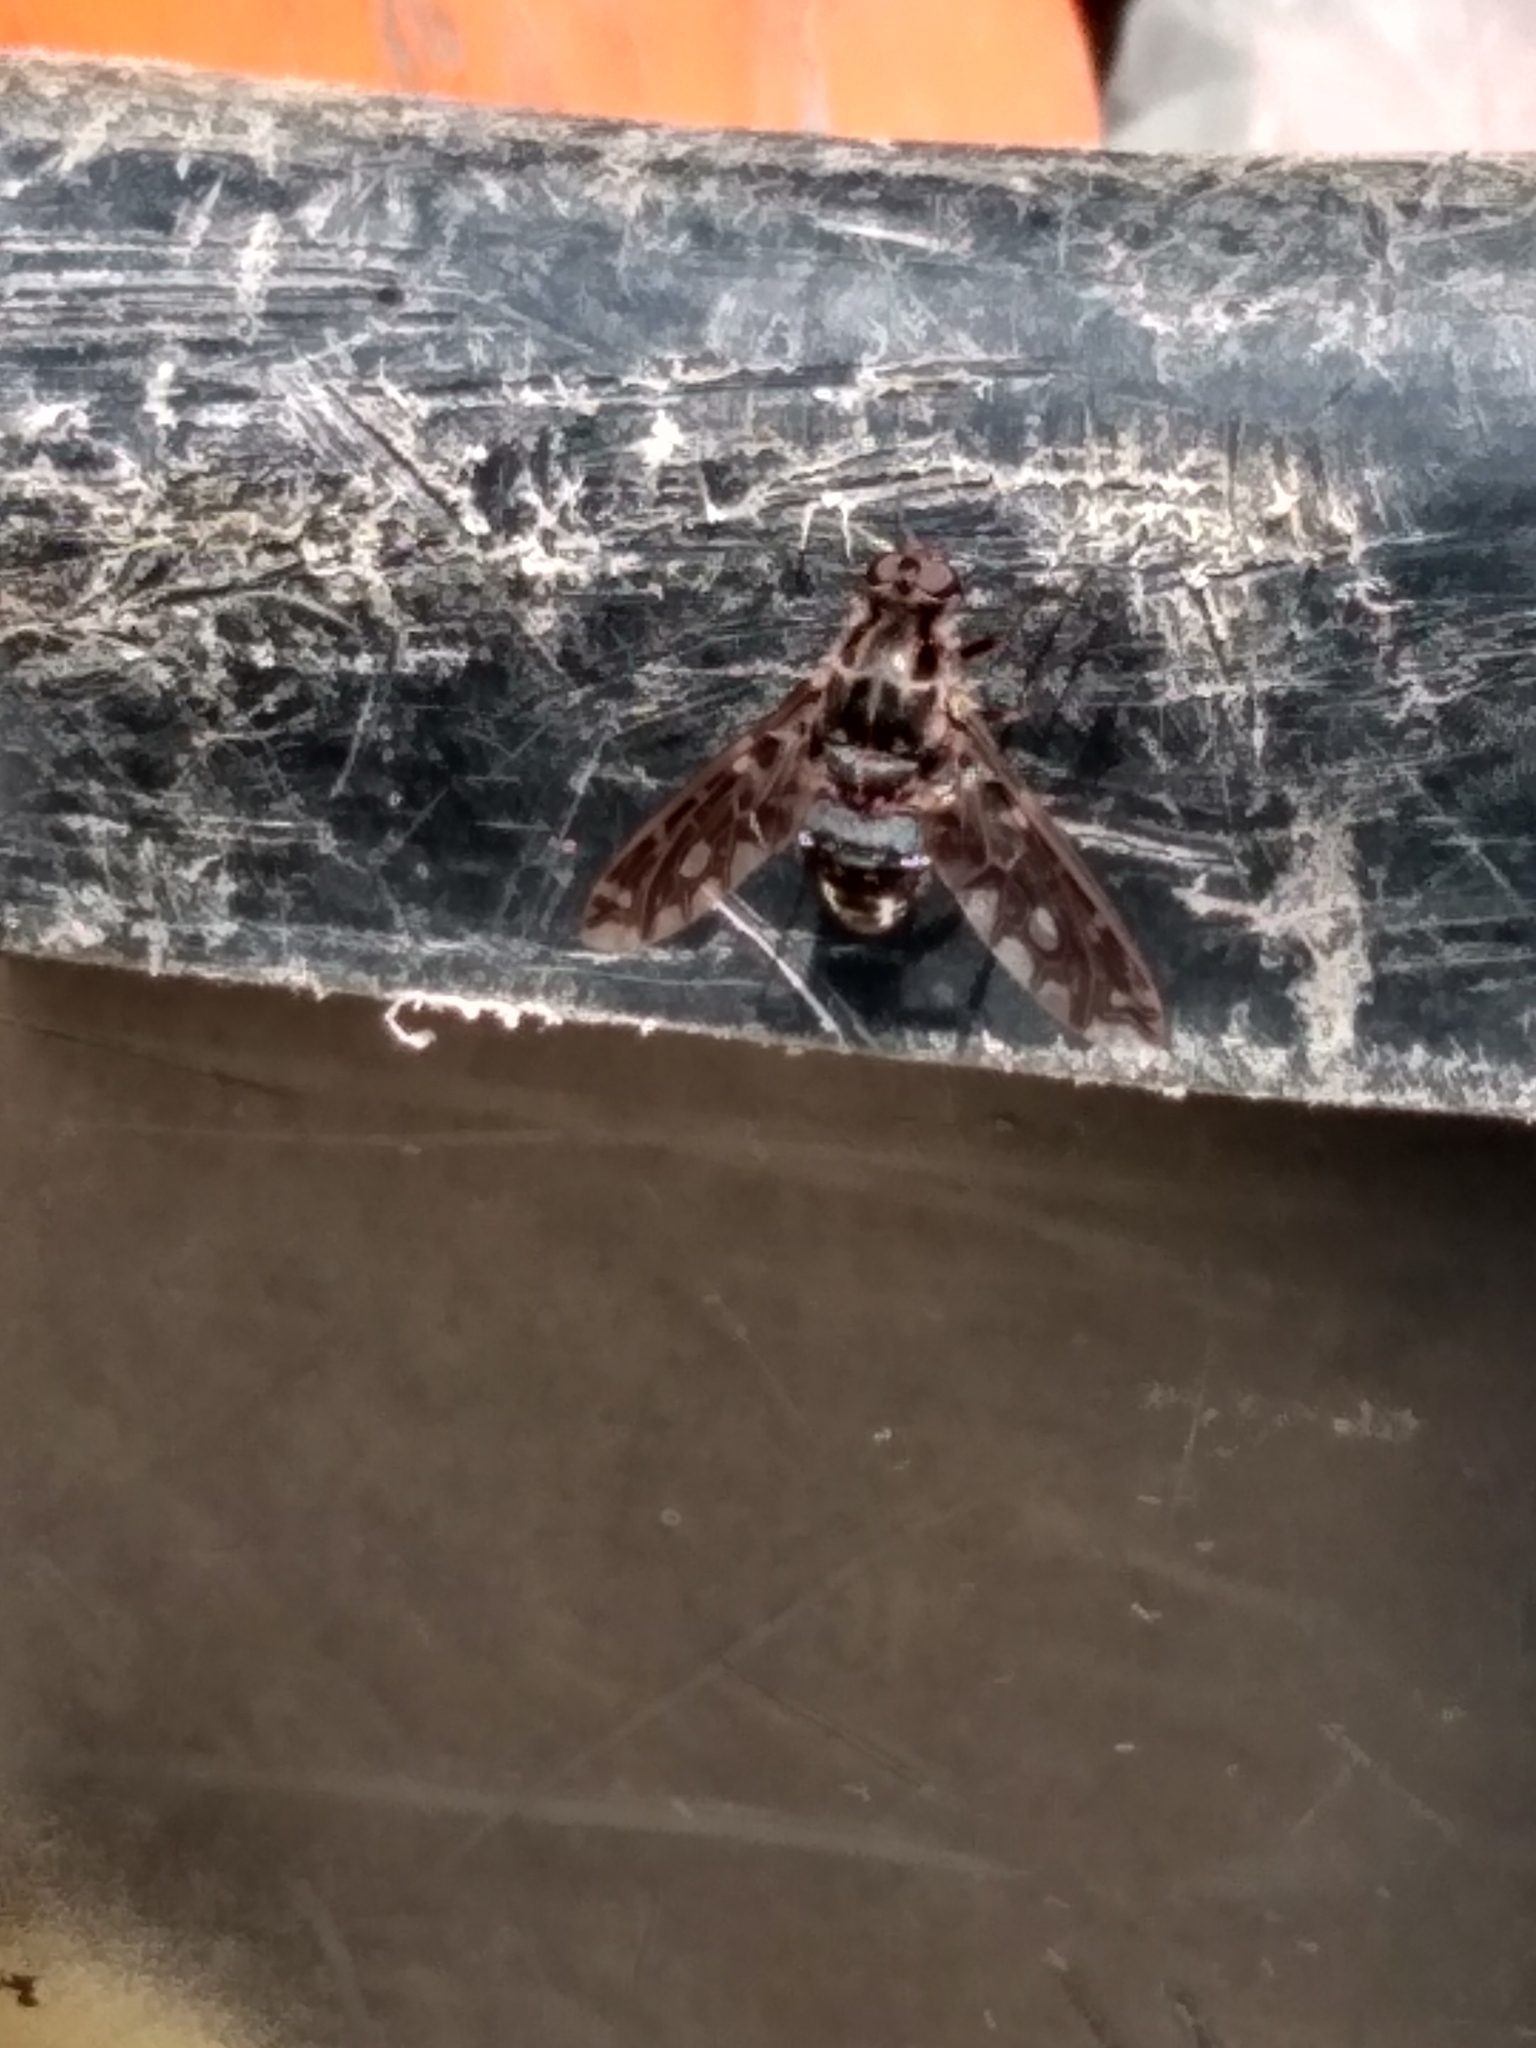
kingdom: Animalia
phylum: Arthropoda
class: Insecta
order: Diptera
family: Bombyliidae
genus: Xenox
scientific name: Xenox tigrinus
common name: Tiger bee fly
